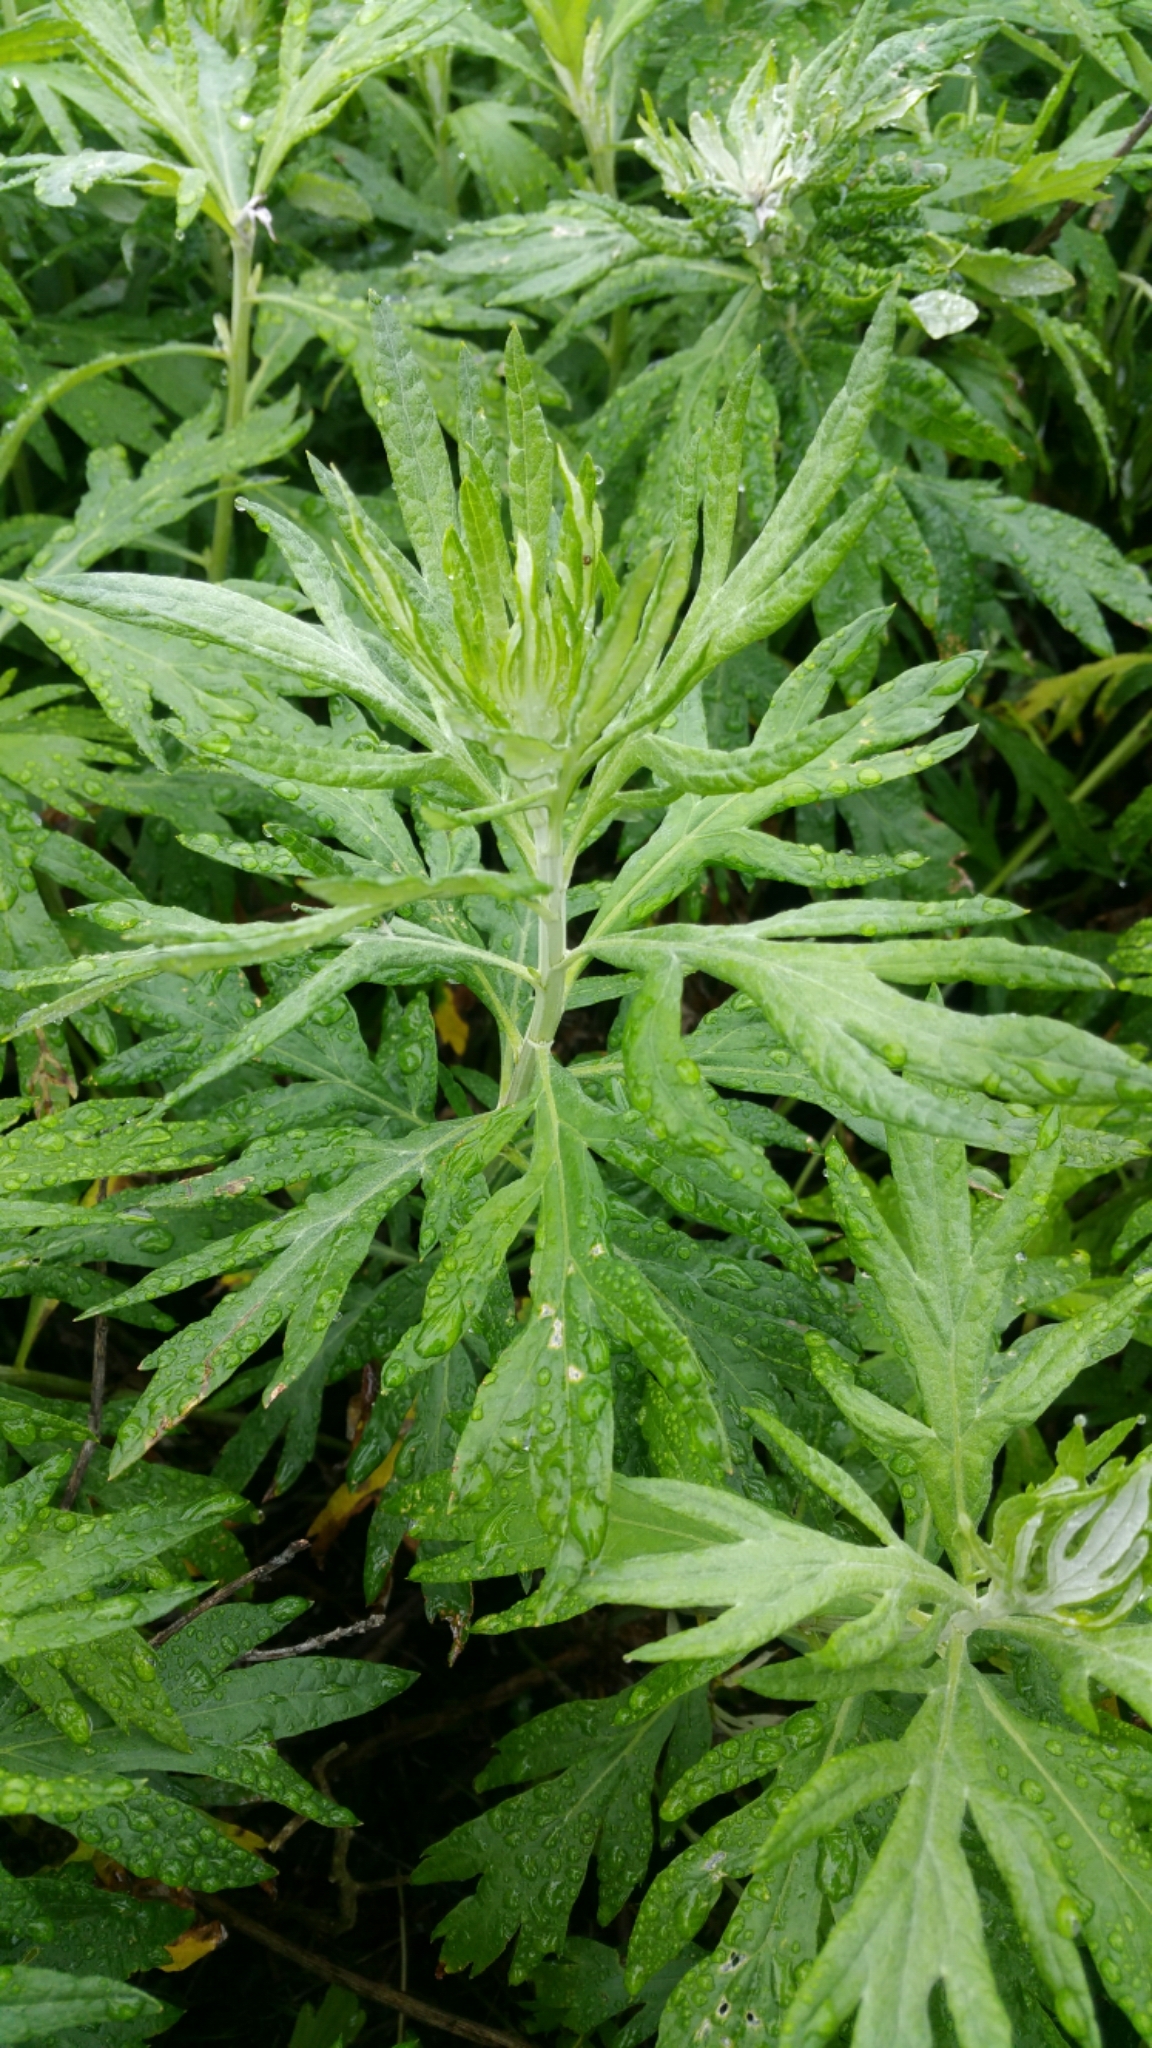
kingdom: Plantae
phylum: Tracheophyta
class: Magnoliopsida
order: Asterales
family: Asteraceae
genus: Artemisia
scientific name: Artemisia douglasiana
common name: Northwest mugwort
